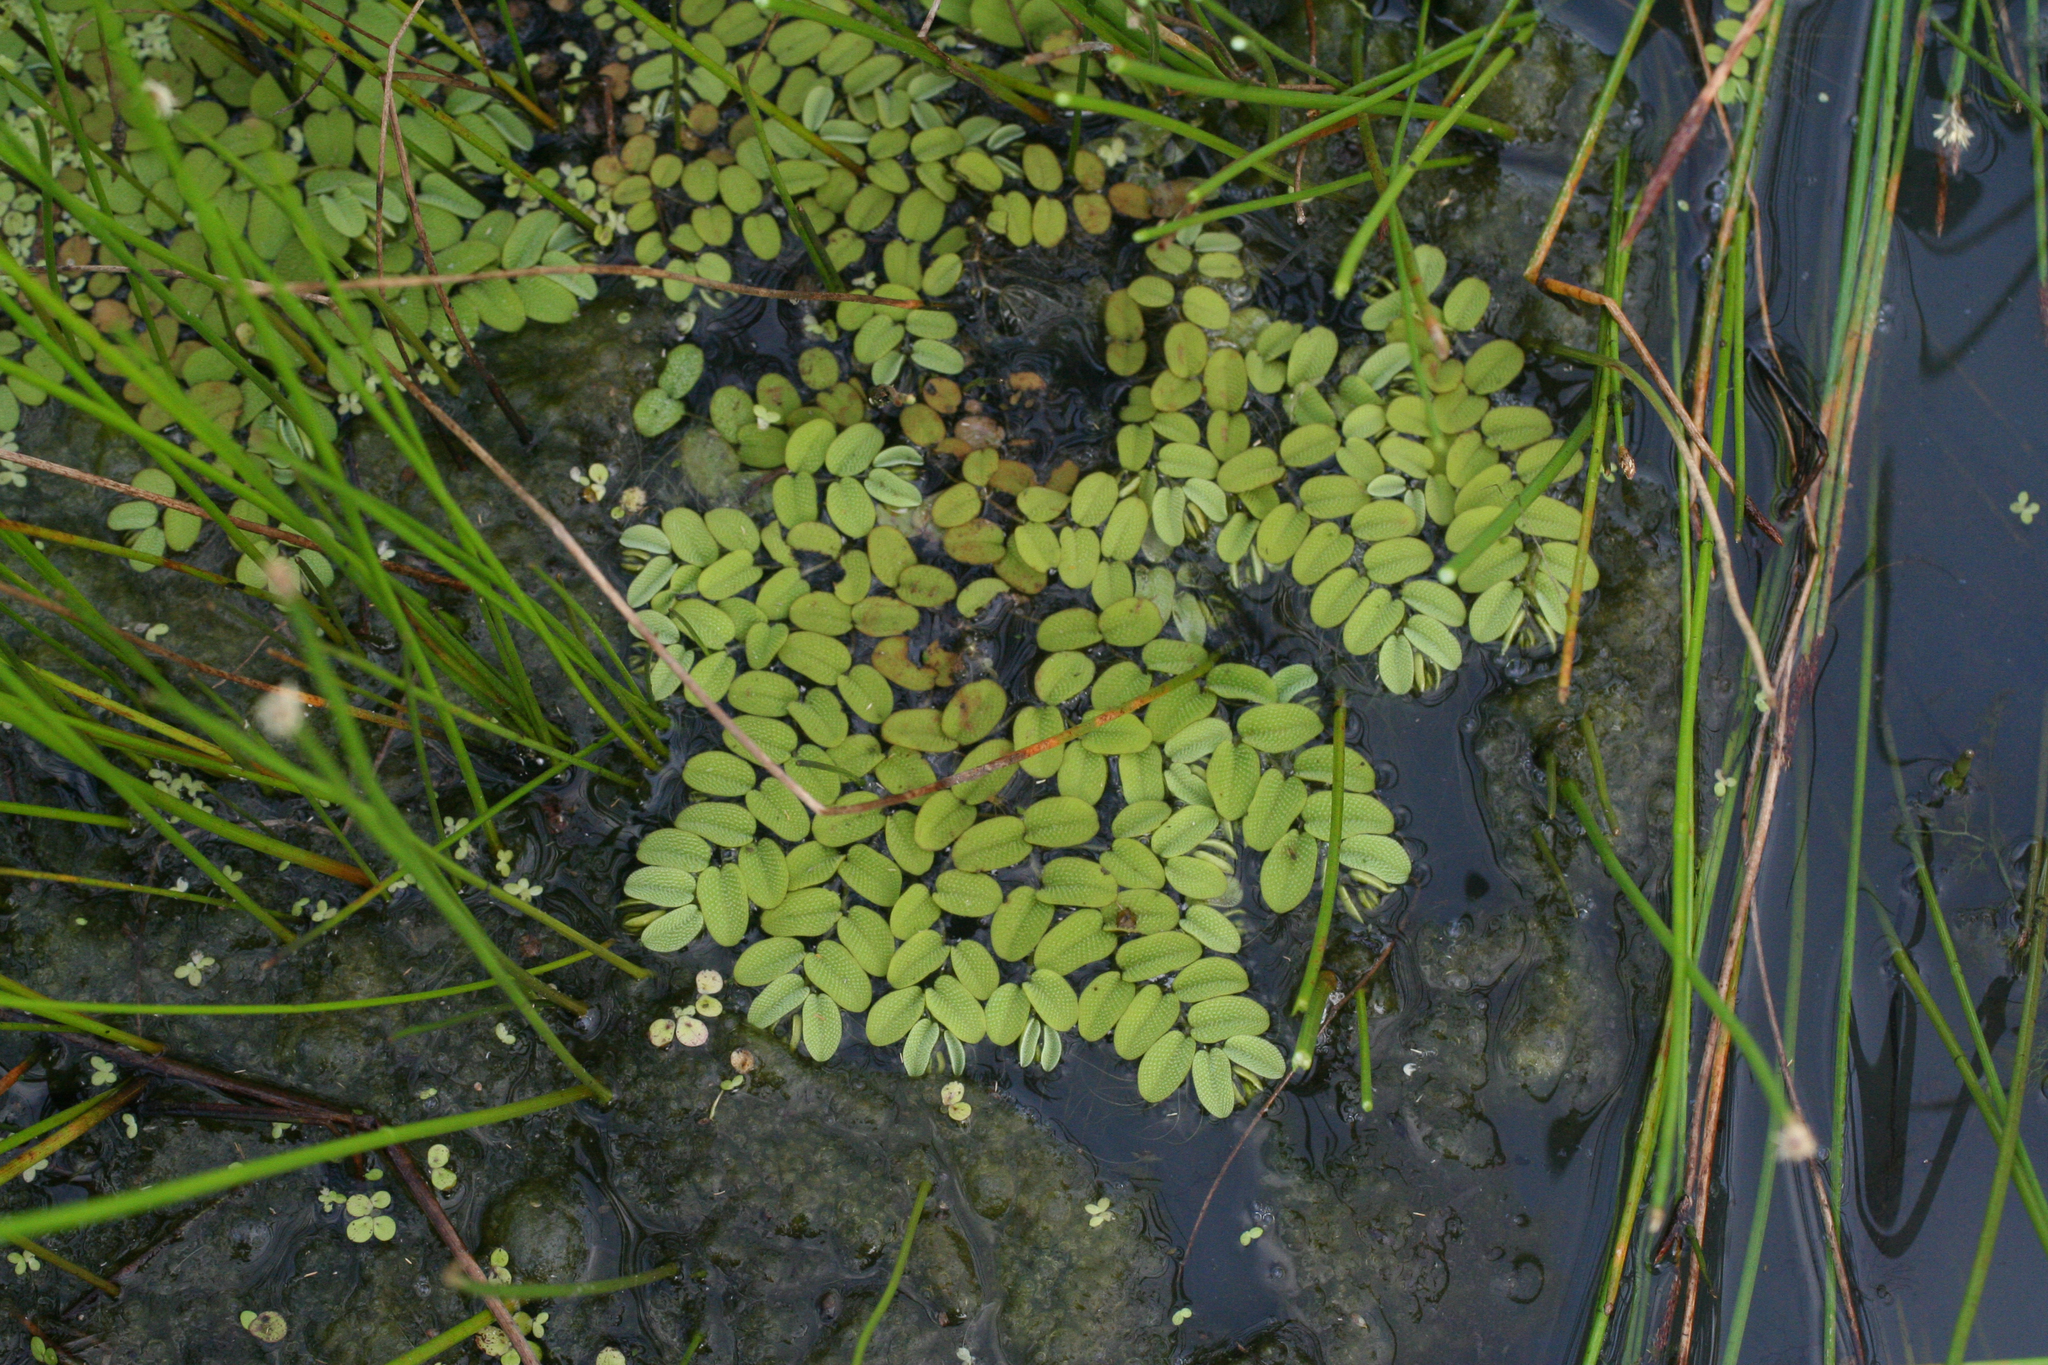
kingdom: Plantae
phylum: Tracheophyta
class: Polypodiopsida
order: Salviniales
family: Salviniaceae
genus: Salvinia
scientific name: Salvinia natans
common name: Floating fern
